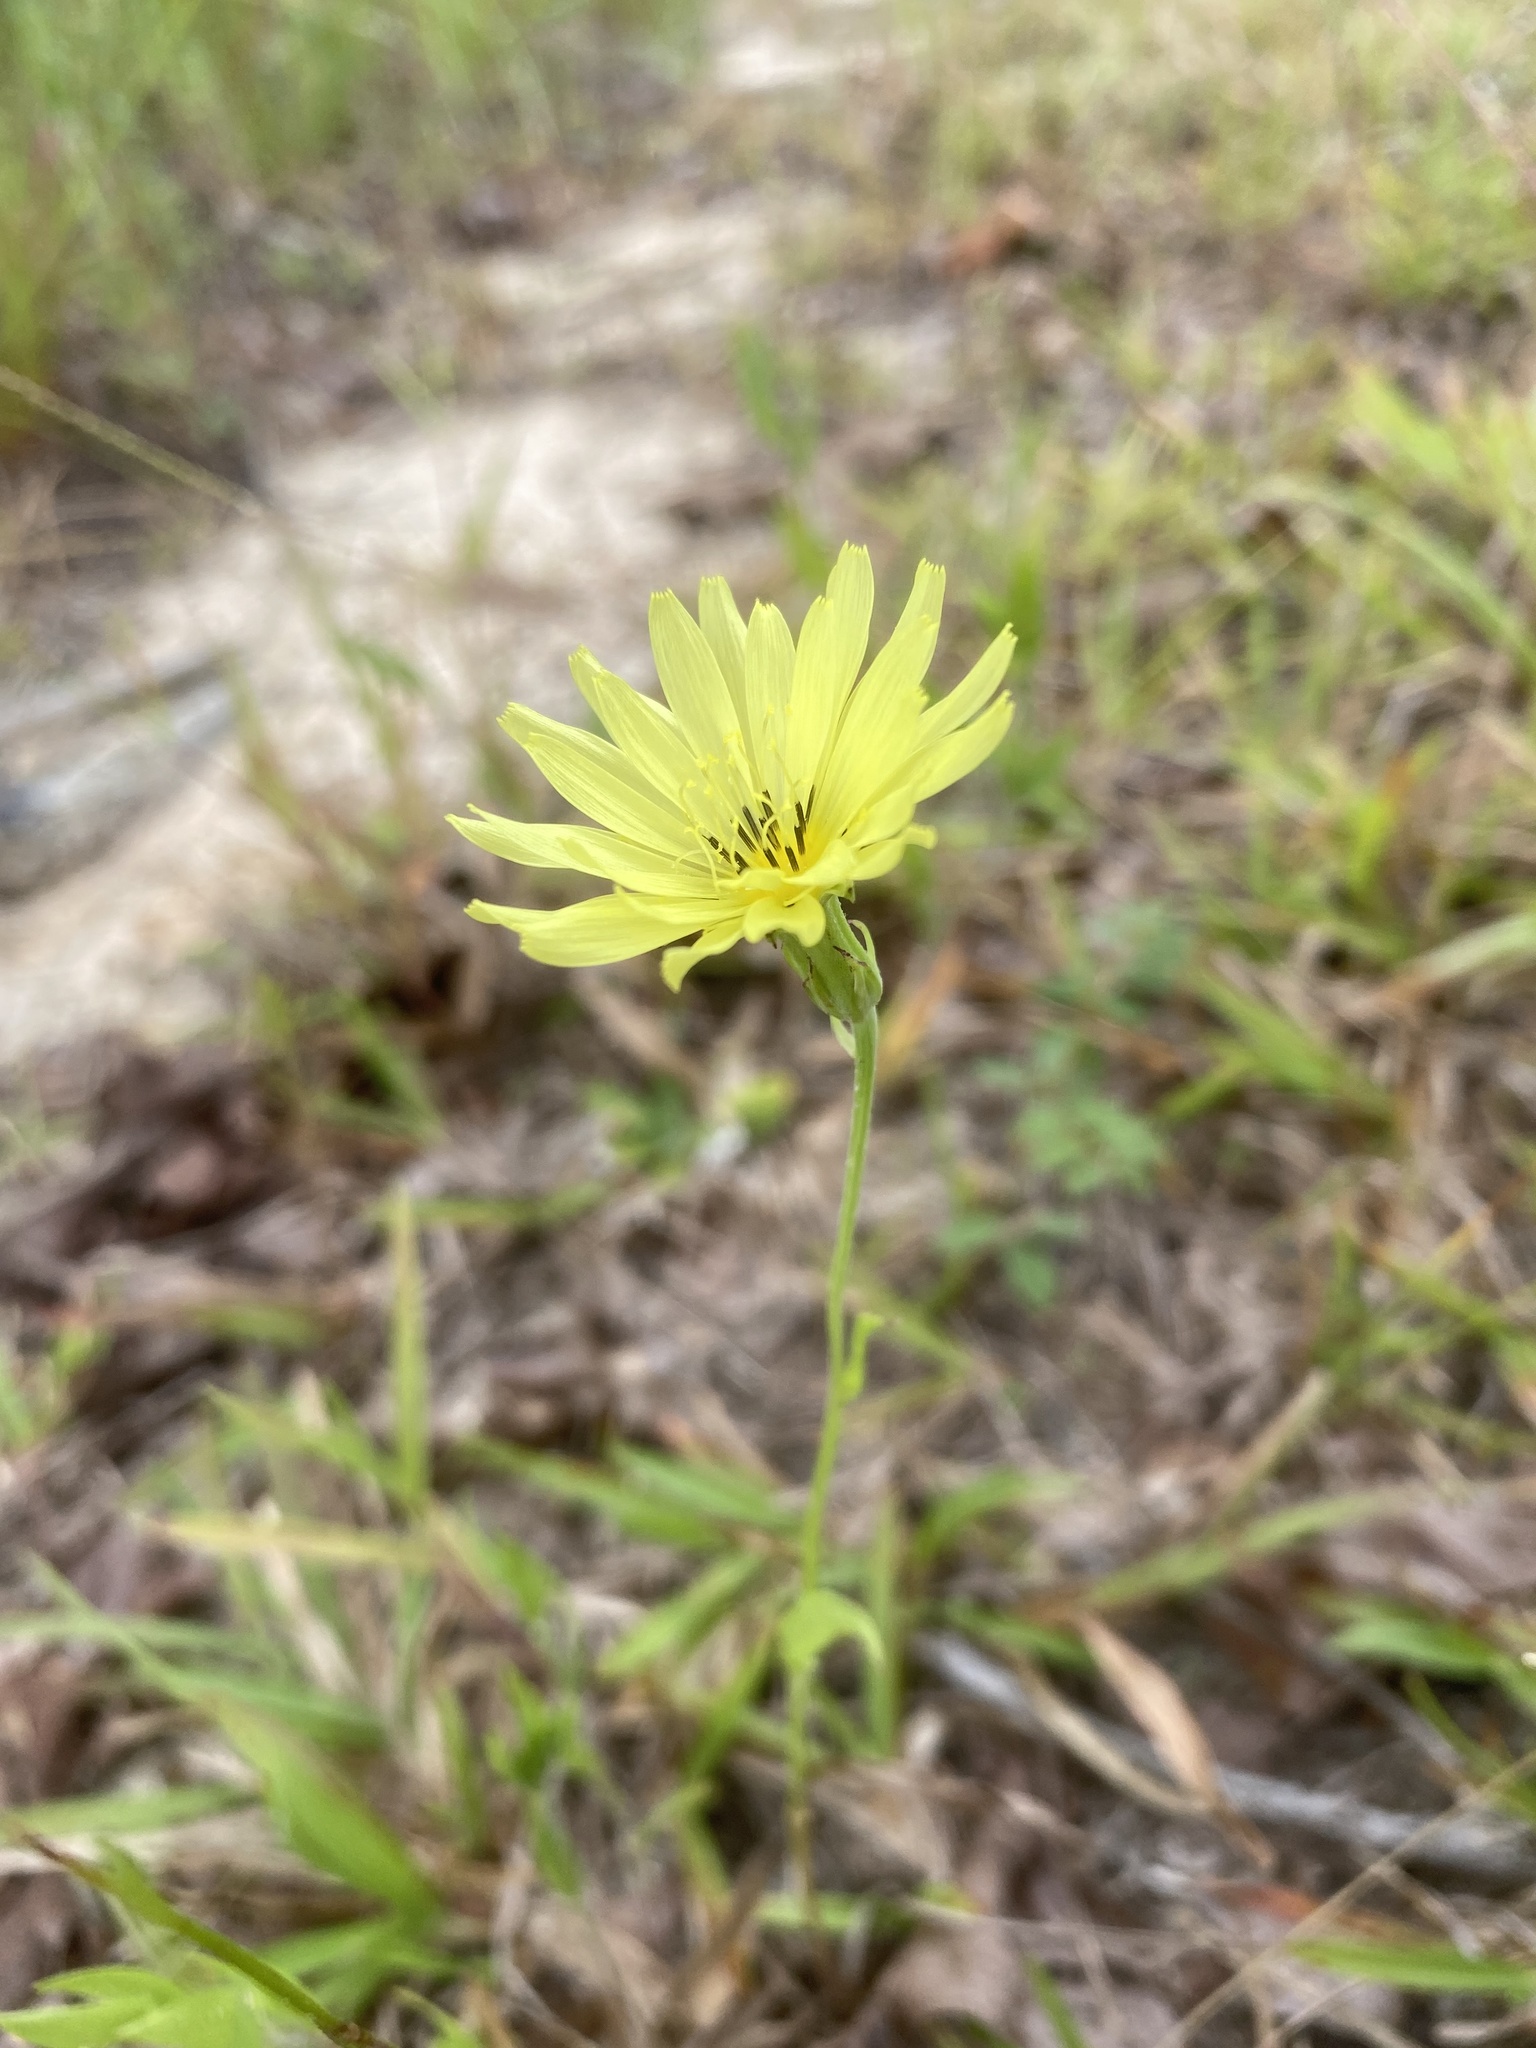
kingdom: Plantae
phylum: Tracheophyta
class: Magnoliopsida
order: Asterales
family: Asteraceae
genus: Pyrrhopappus
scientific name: Pyrrhopappus carolinianus
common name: Carolina desert-chicory
